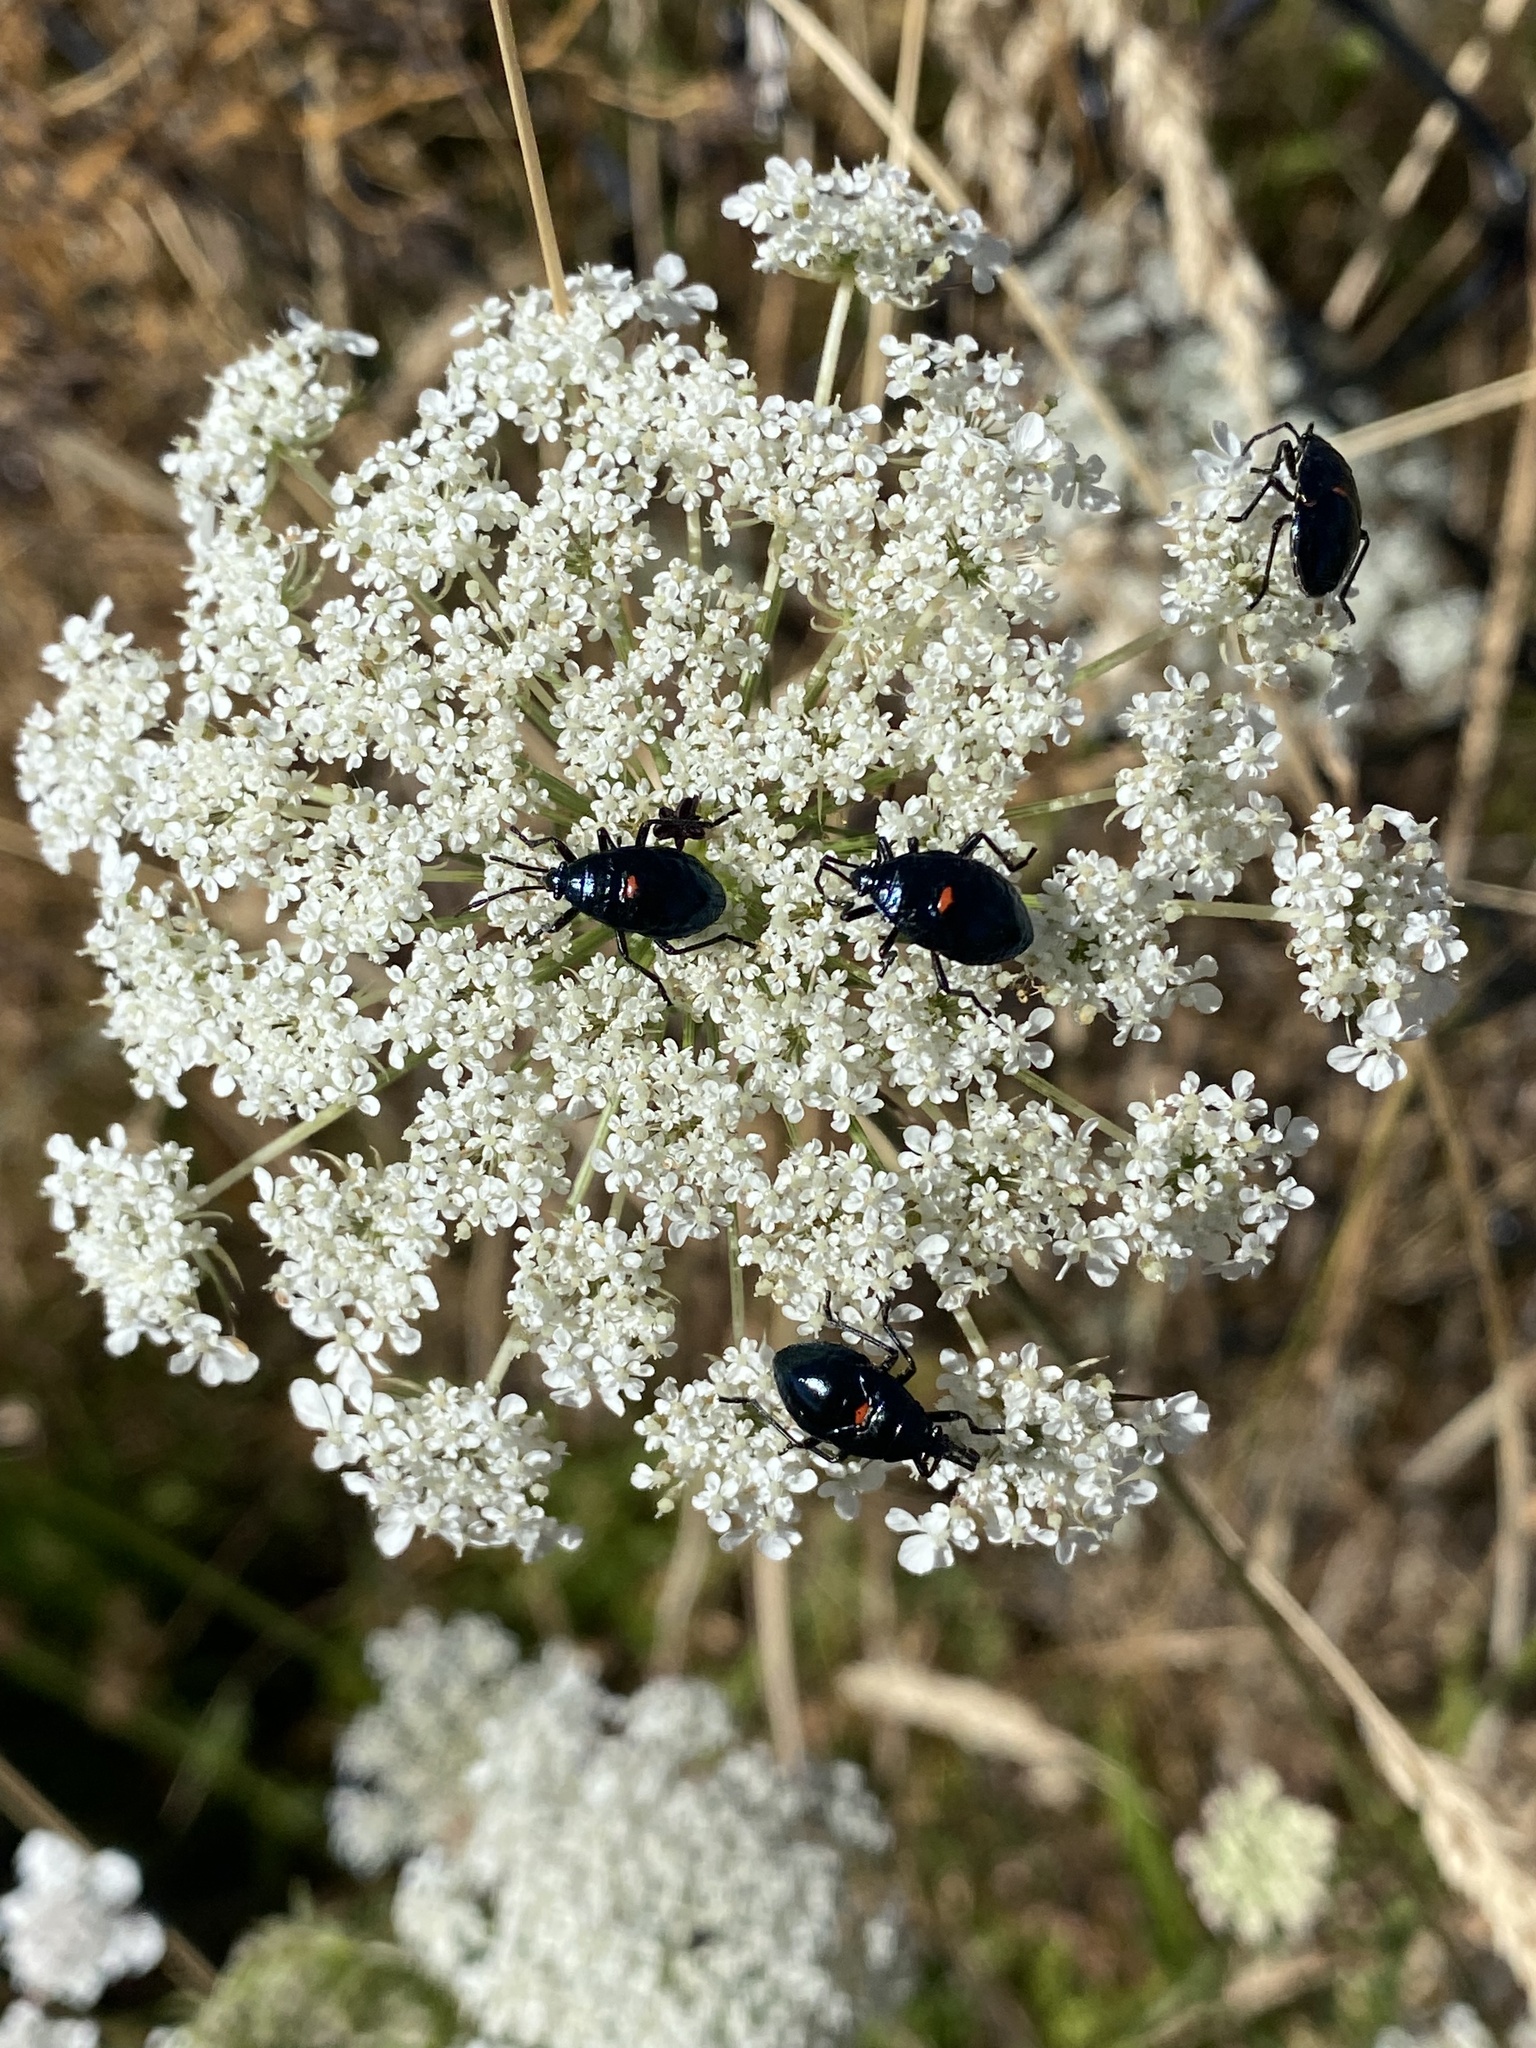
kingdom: Plantae
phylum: Tracheophyta
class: Magnoliopsida
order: Apiales
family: Apiaceae
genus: Daucus
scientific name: Daucus carota
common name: Wild carrot
